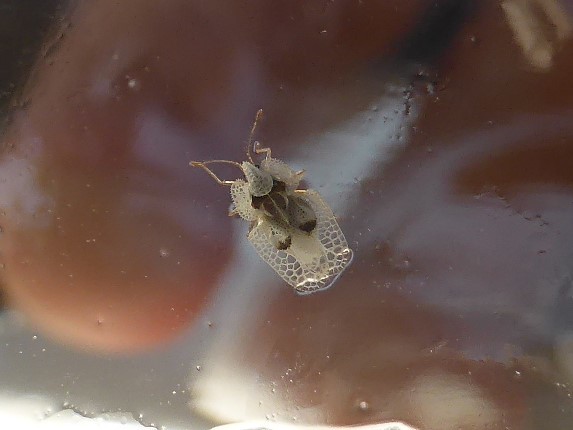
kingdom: Animalia
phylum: Arthropoda
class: Insecta
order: Hemiptera
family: Tingidae
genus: Corythucha
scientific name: Corythucha ciliata
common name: Sycamore lace bug
